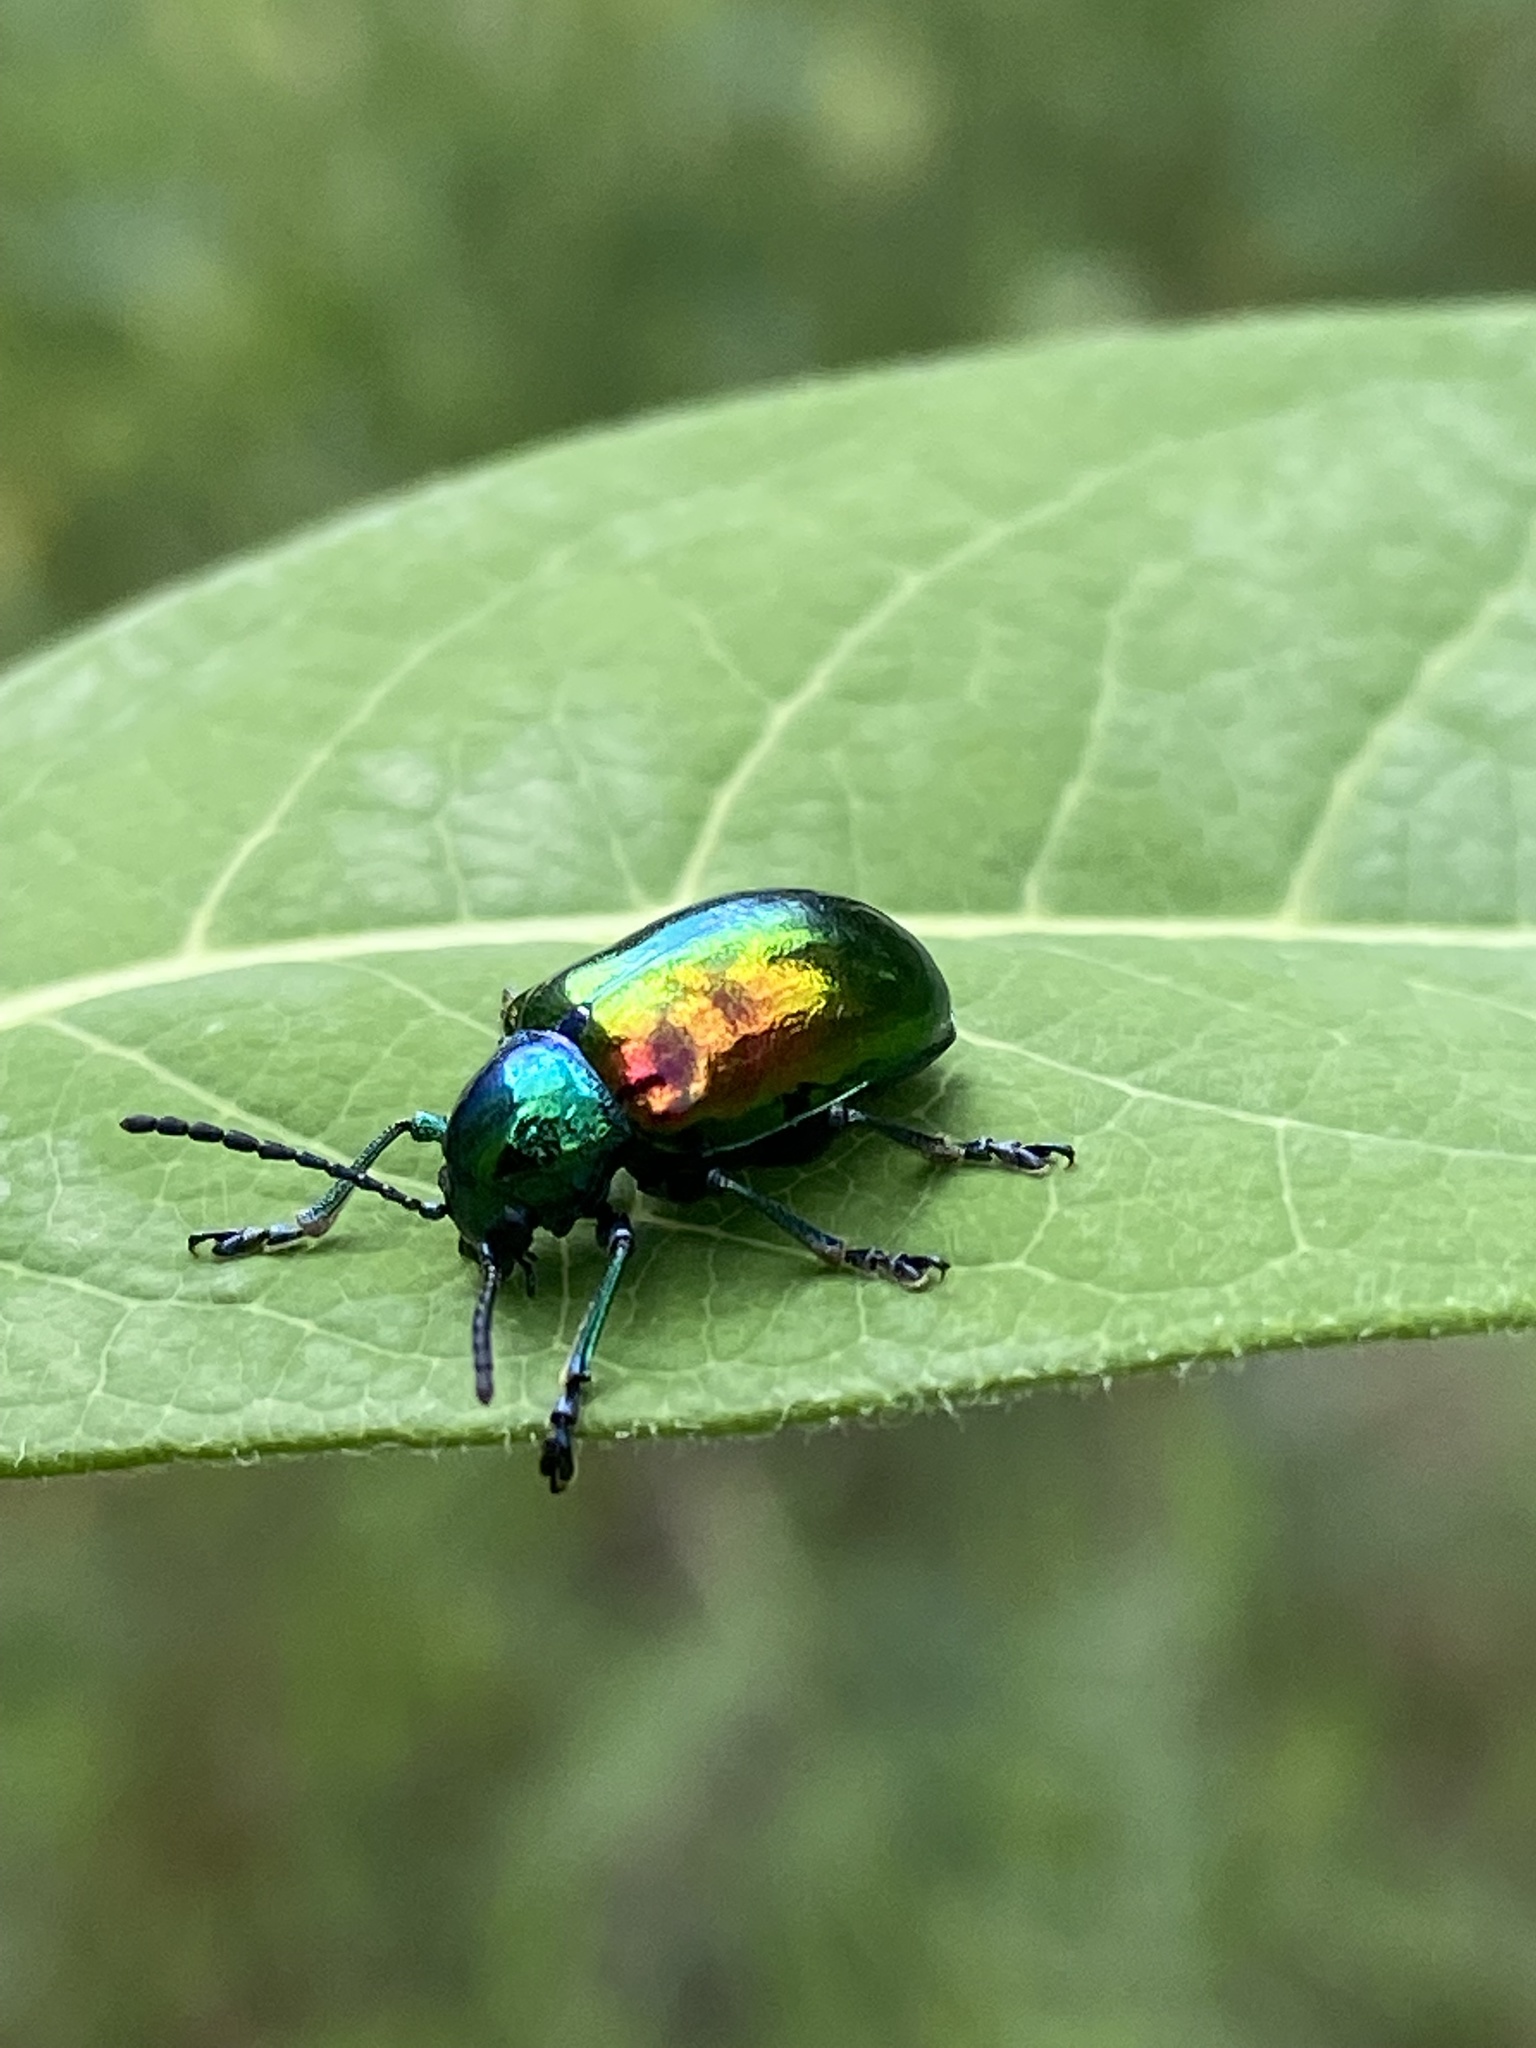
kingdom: Animalia
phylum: Arthropoda
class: Insecta
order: Coleoptera
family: Chrysomelidae
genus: Chrysochus
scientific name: Chrysochus auratus
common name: Dogbane leaf beetle
